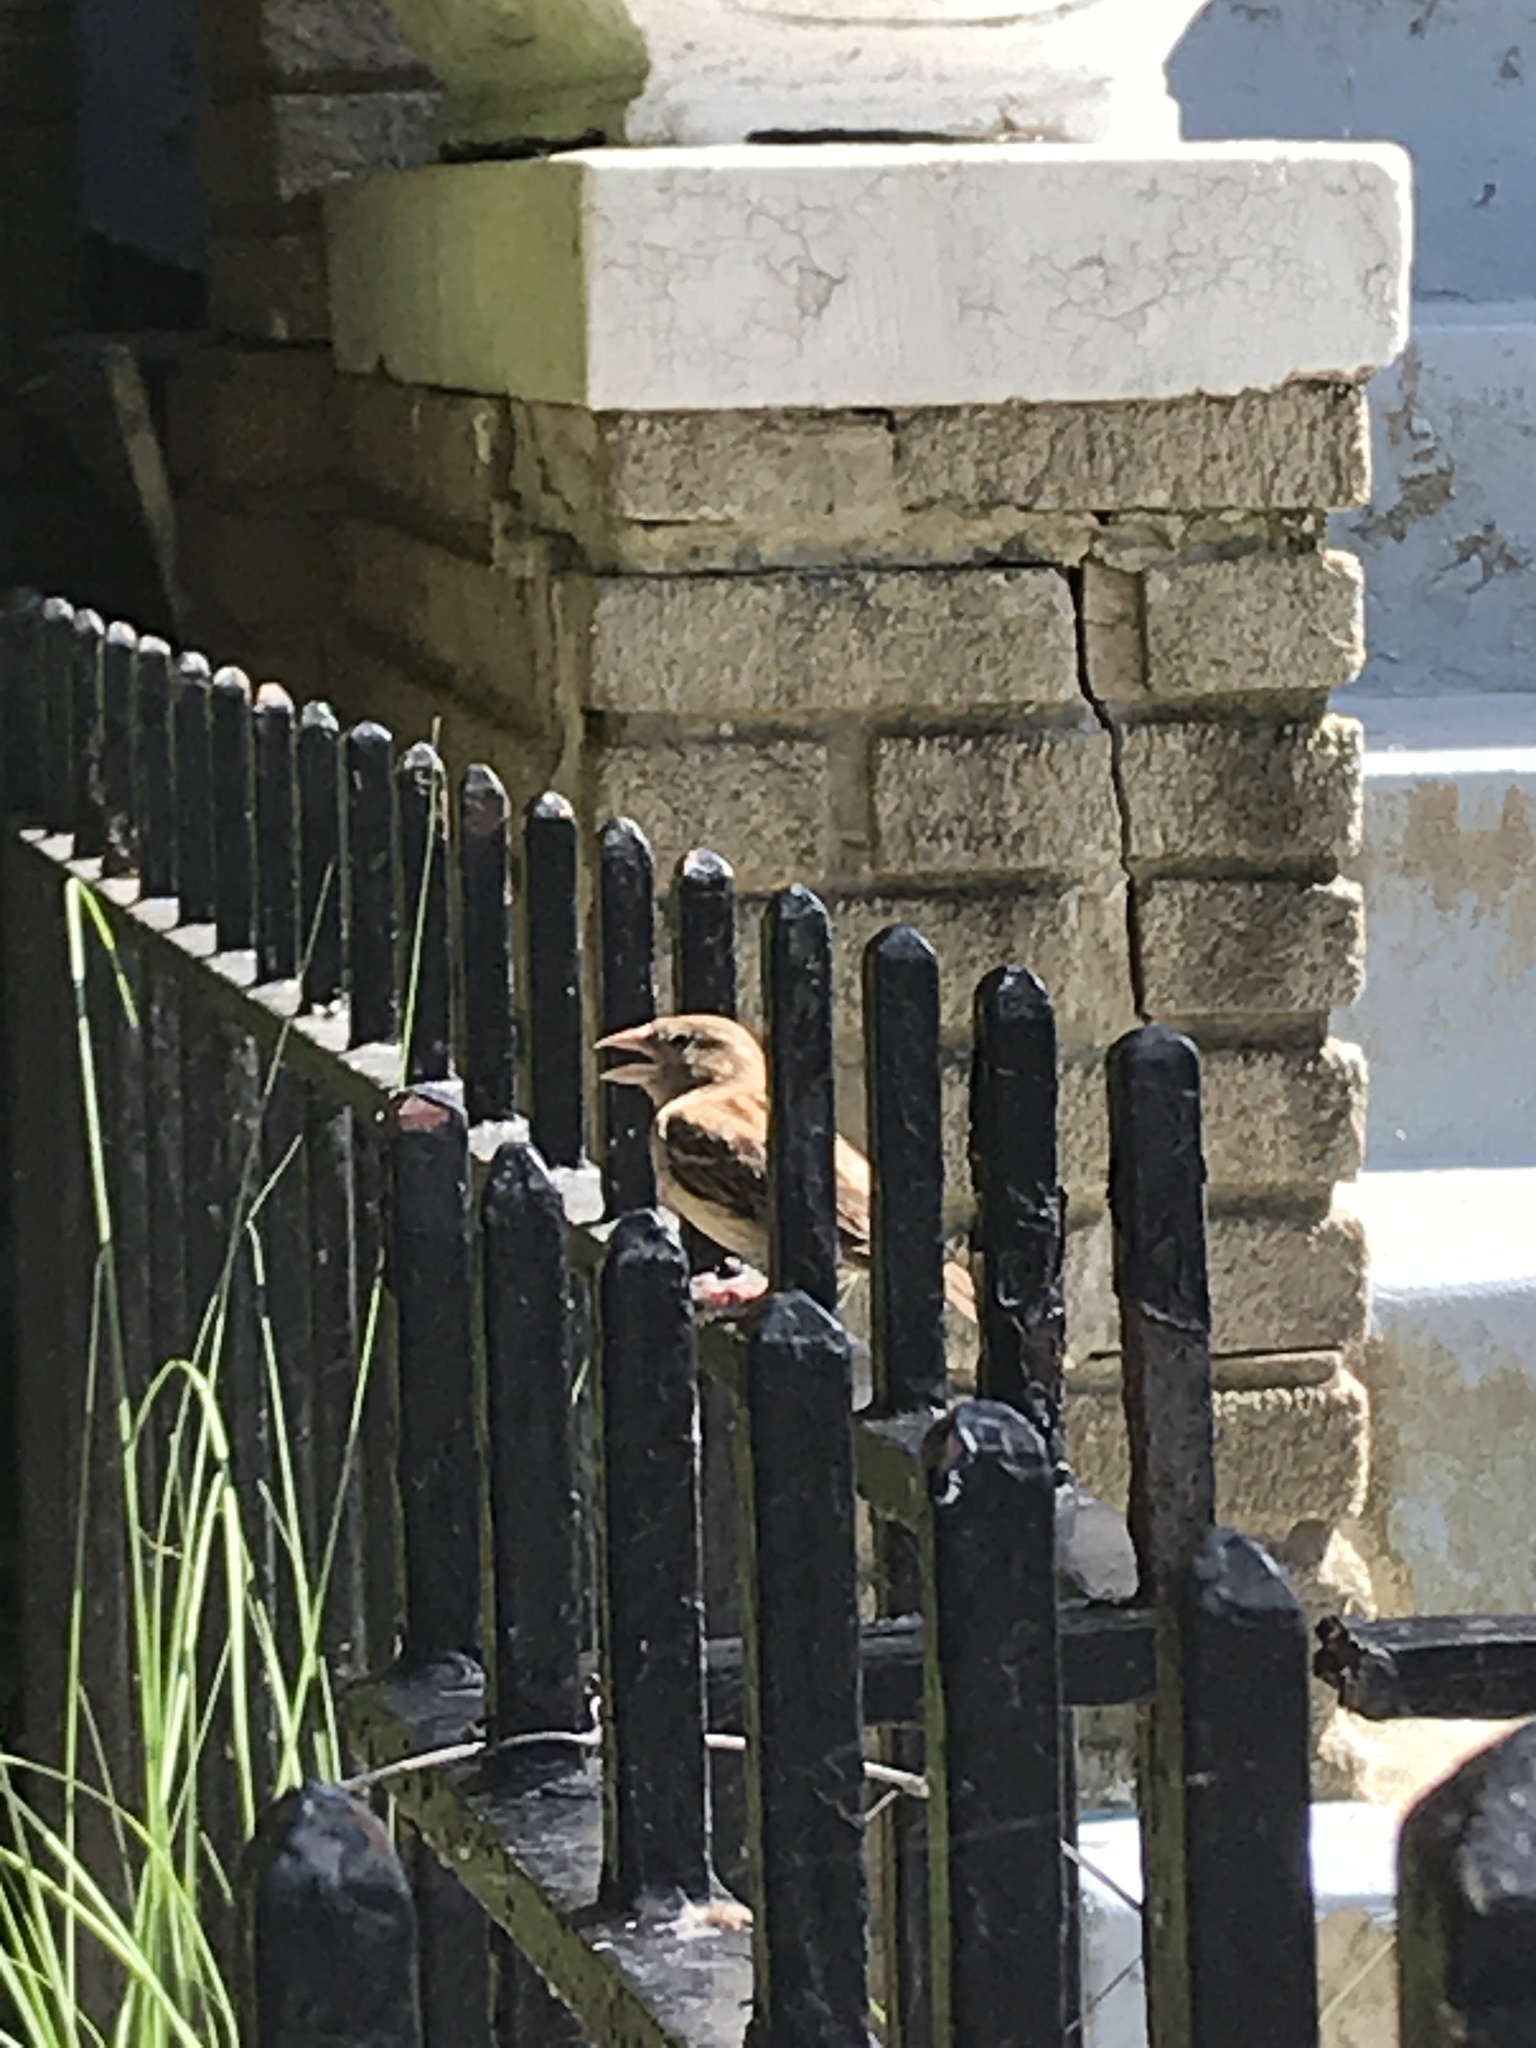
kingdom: Animalia
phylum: Chordata
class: Aves
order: Passeriformes
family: Passeridae
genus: Passer
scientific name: Passer domesticus
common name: House sparrow
